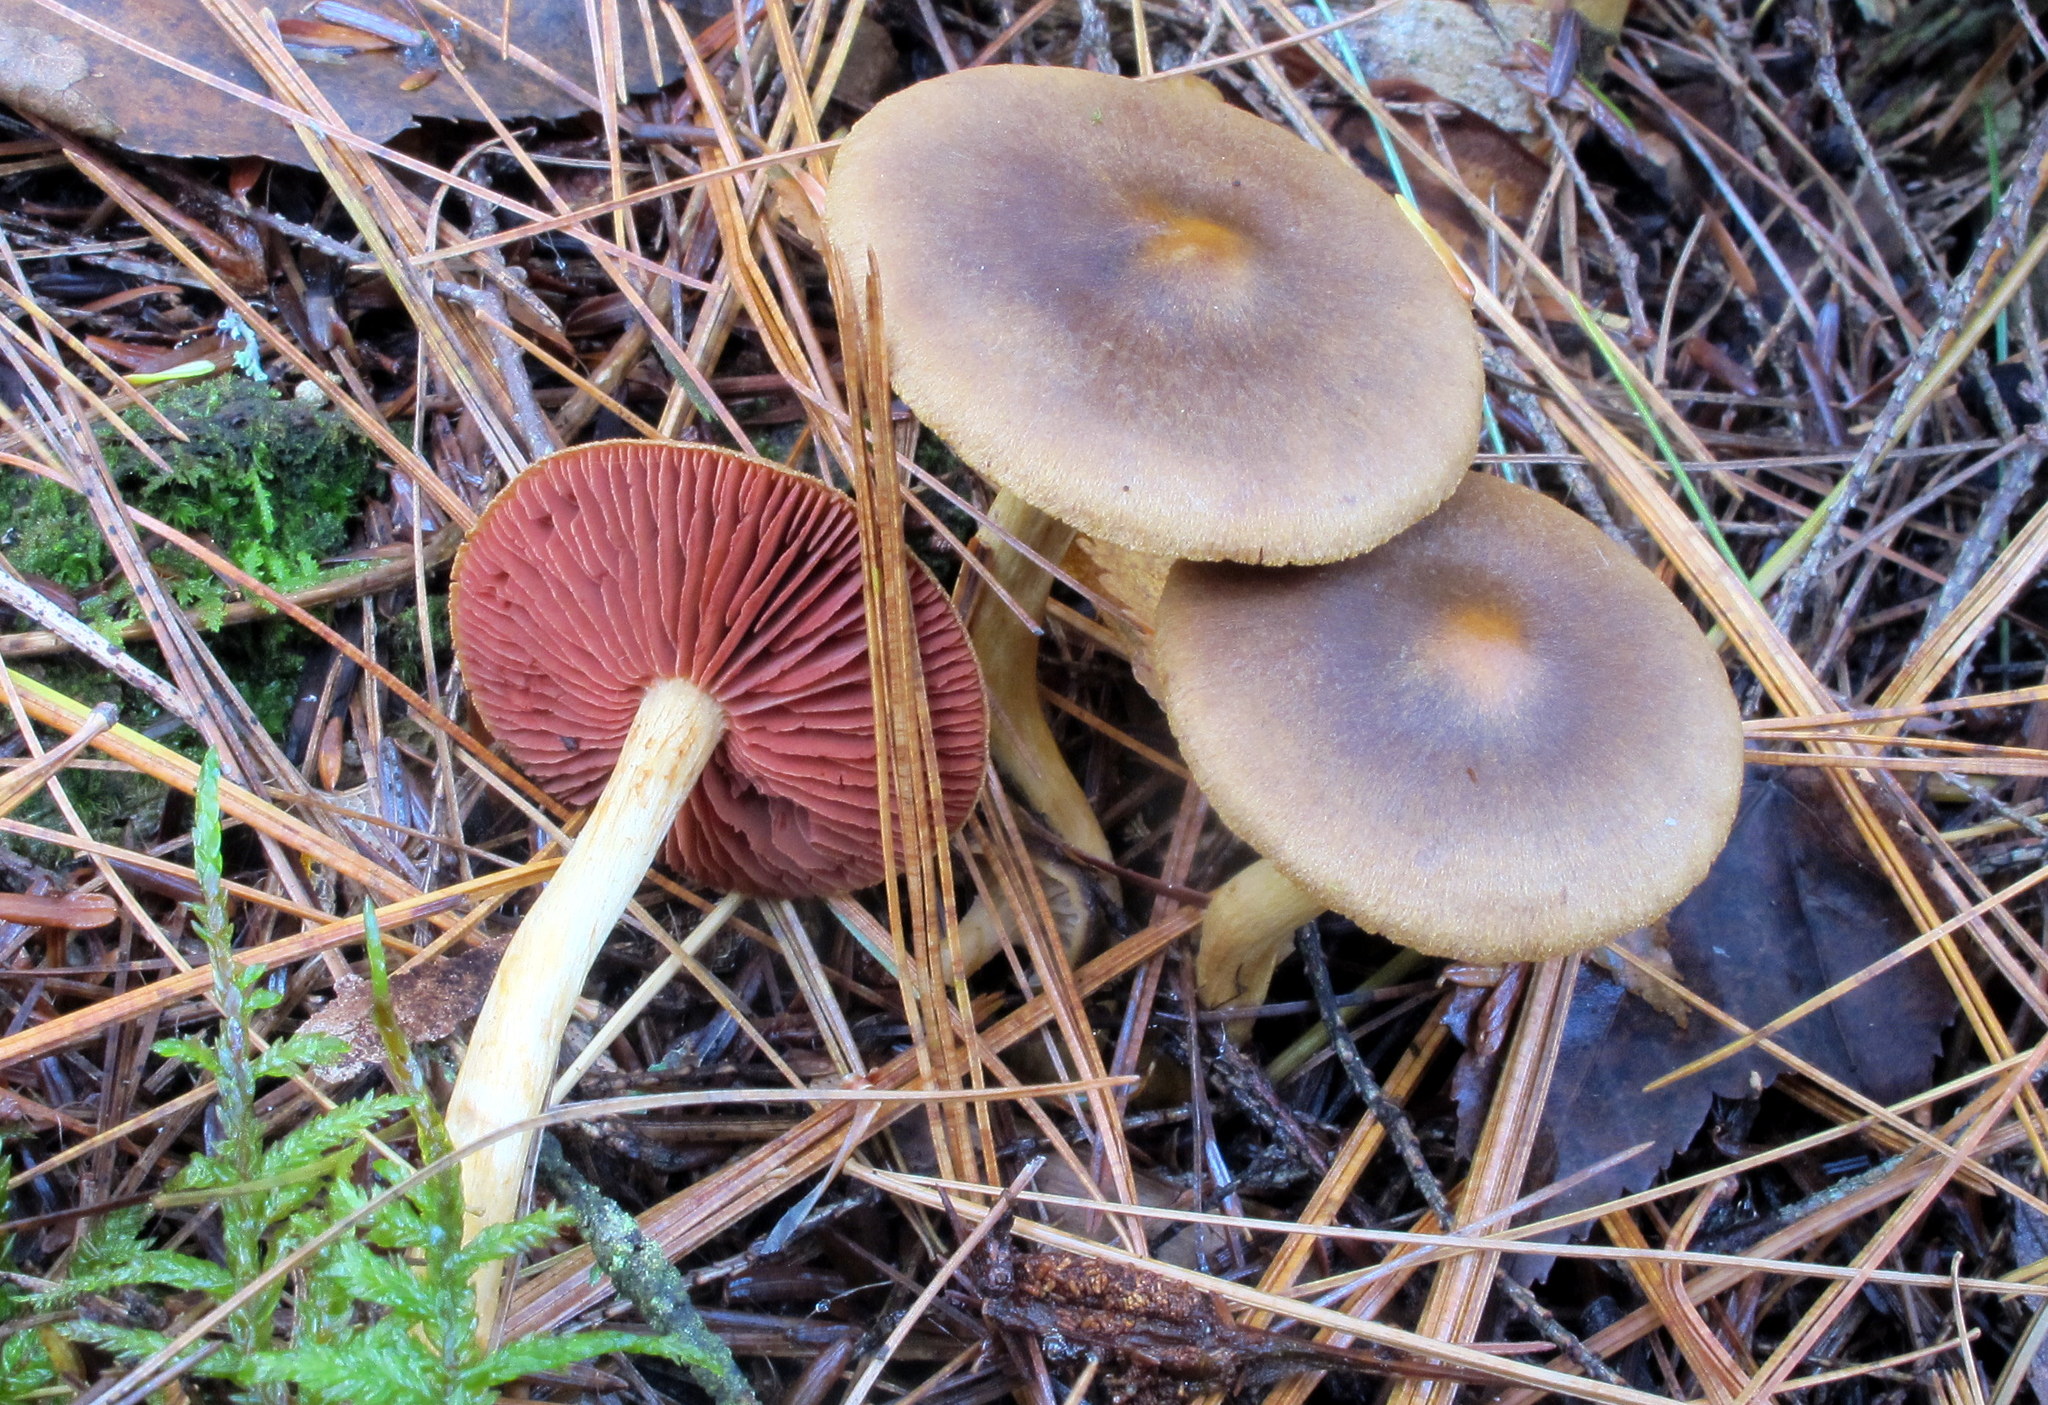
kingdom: Fungi
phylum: Basidiomycota
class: Agaricomycetes
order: Agaricales
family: Cortinariaceae
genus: Cortinarius
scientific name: Cortinarius semisanguineus
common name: Surprise webcap
